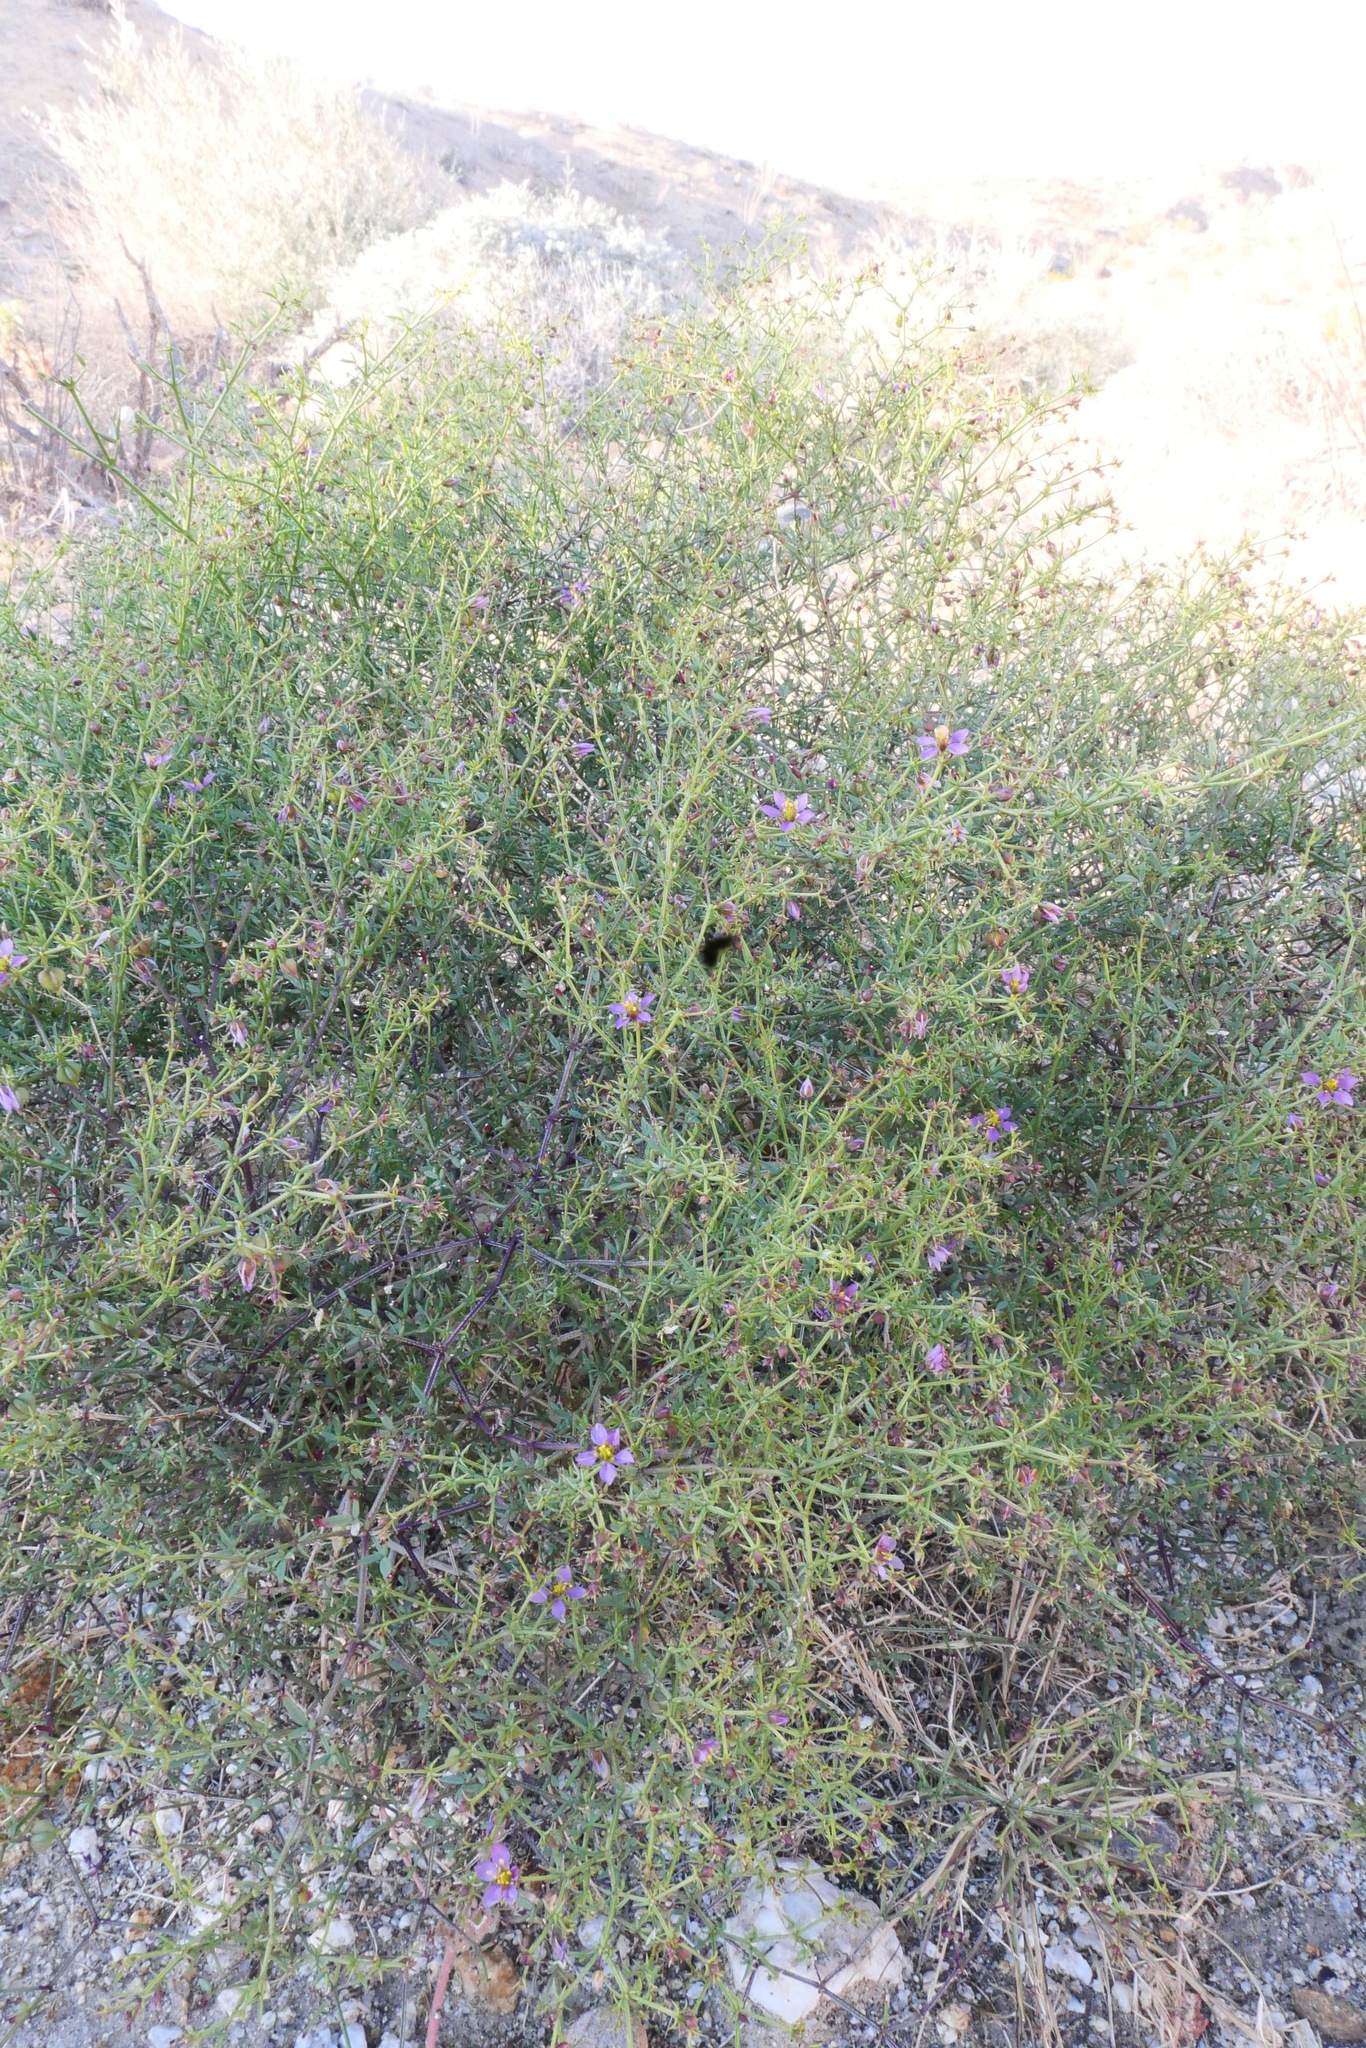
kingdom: Plantae
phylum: Tracheophyta
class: Magnoliopsida
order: Zygophyllales
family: Zygophyllaceae
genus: Fagonia
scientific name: Fagonia laevis
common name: California fagonbush
